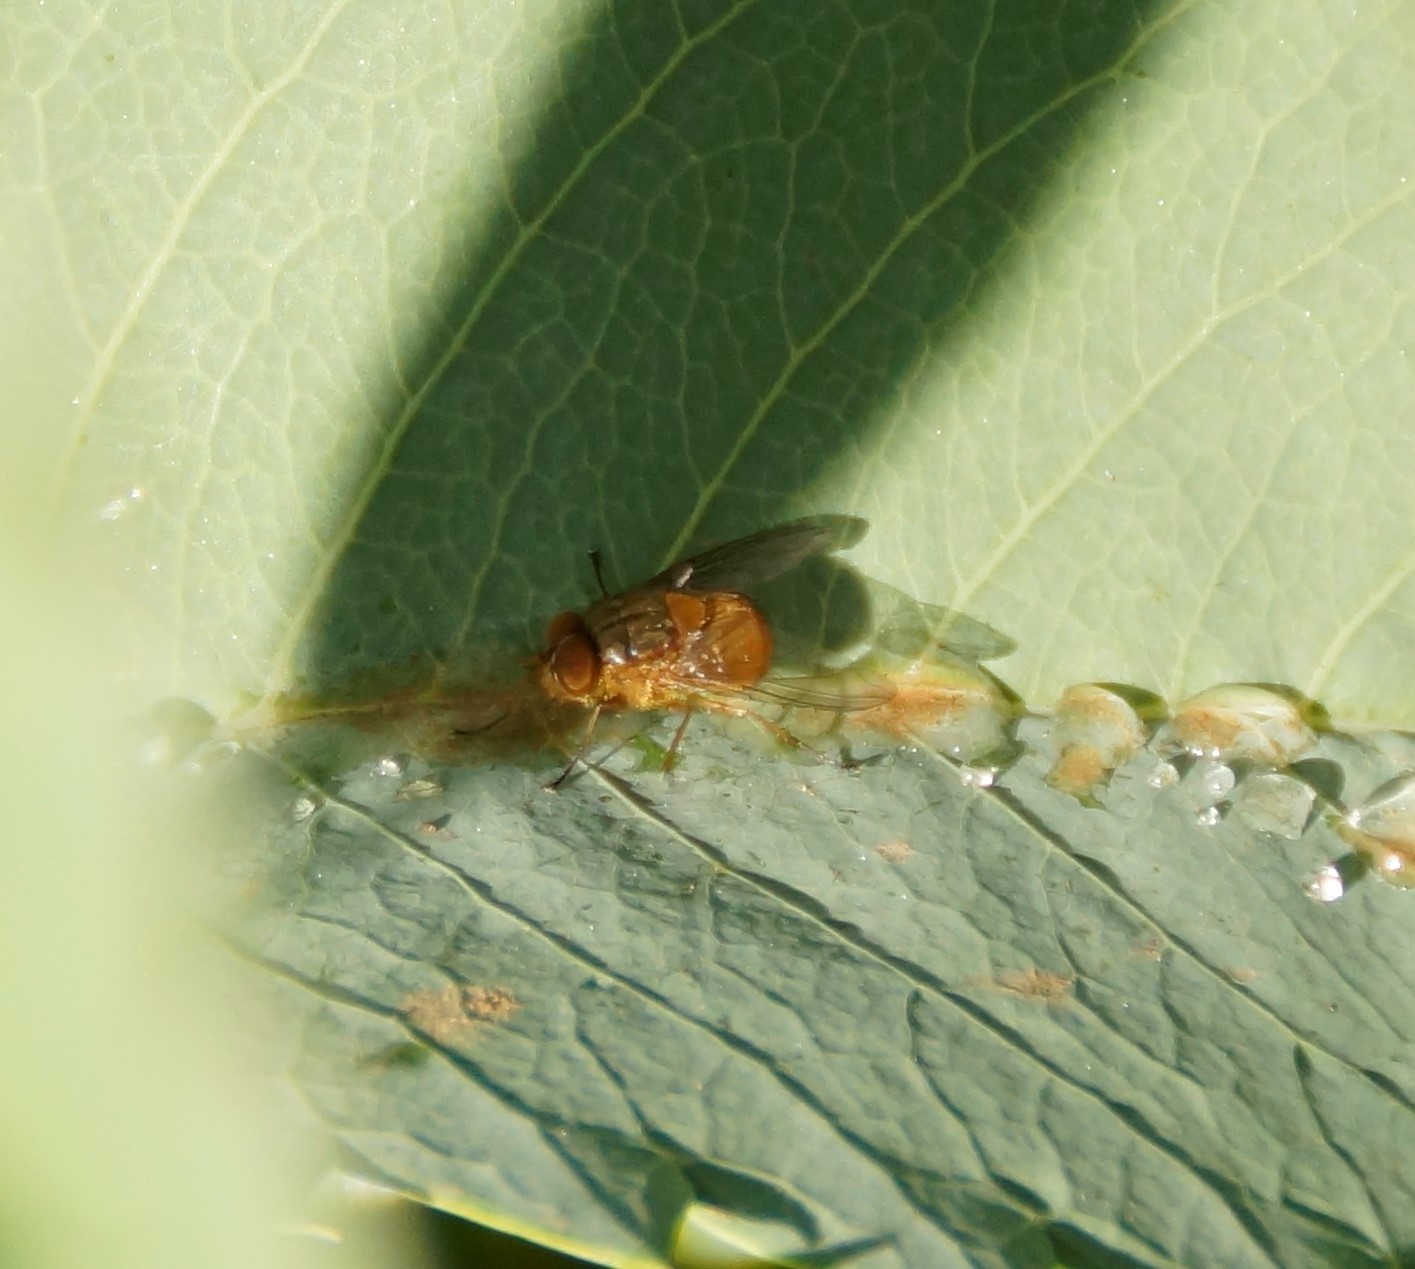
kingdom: Animalia
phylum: Arthropoda
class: Insecta
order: Diptera
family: Calliphoridae
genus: Calliphora
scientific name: Calliphora ochracea
